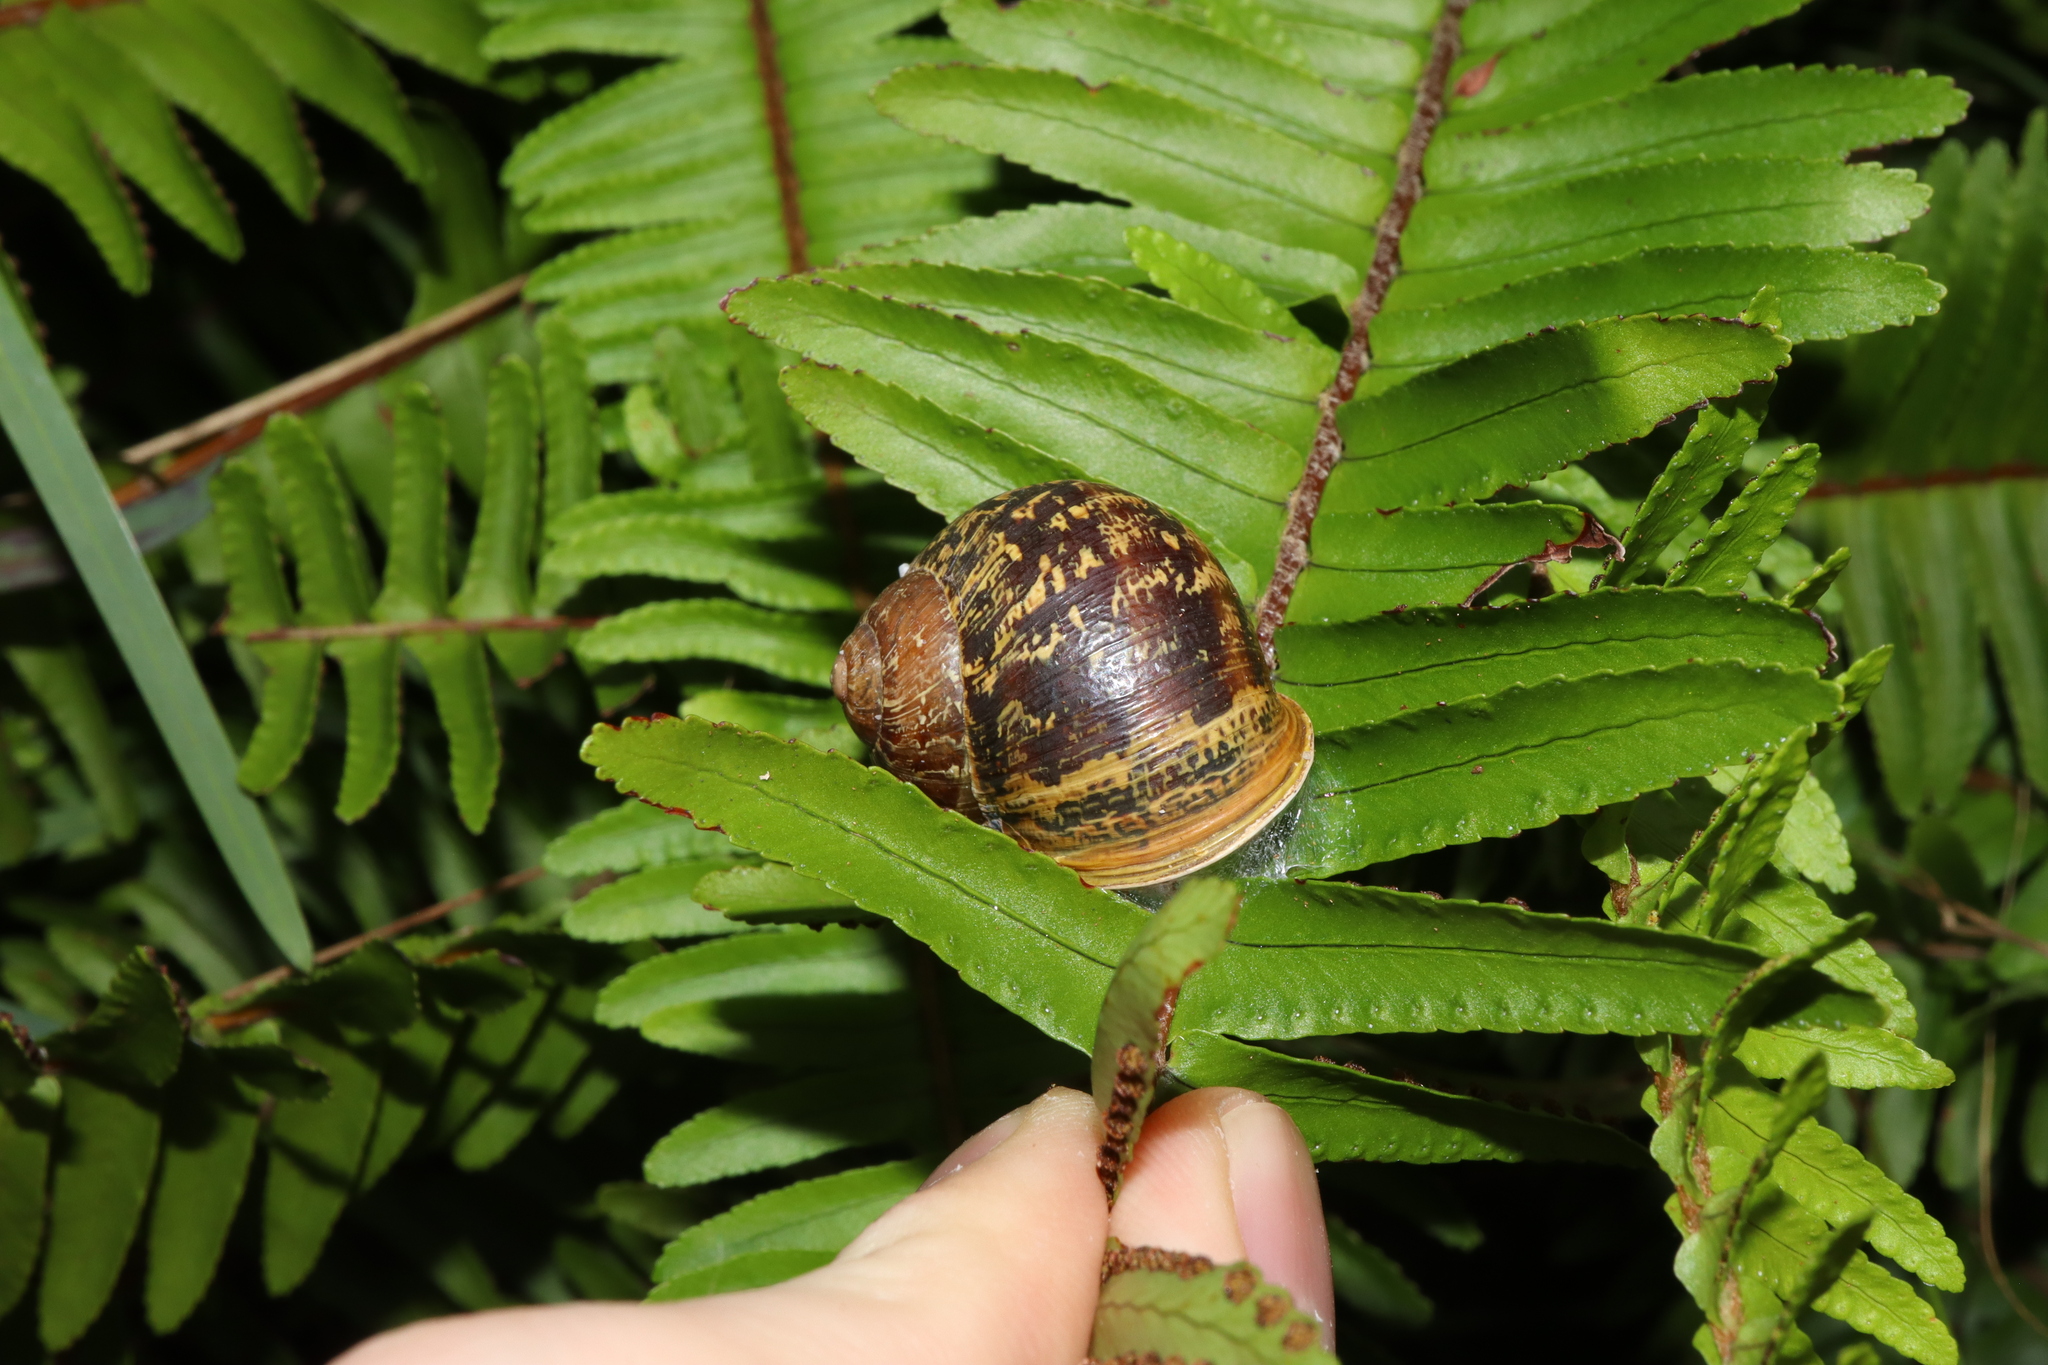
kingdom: Animalia
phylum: Mollusca
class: Gastropoda
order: Stylommatophora
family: Helicidae
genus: Cornu
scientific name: Cornu aspersum
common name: Brown garden snail
